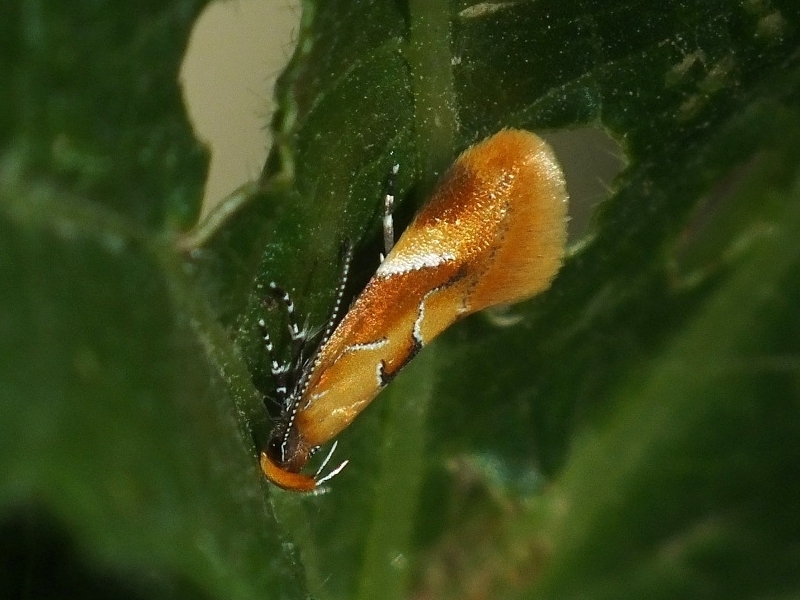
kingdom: Animalia
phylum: Arthropoda
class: Insecta
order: Lepidoptera
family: Oecophoridae
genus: Callima
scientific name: Callima formosella
